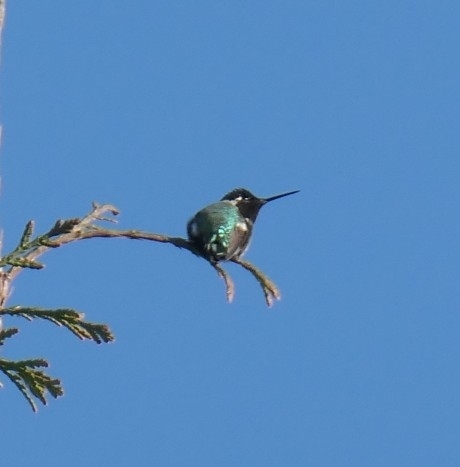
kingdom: Animalia
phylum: Chordata
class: Aves
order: Apodiformes
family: Trochilidae
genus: Calypte
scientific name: Calypte anna
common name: Anna's hummingbird
